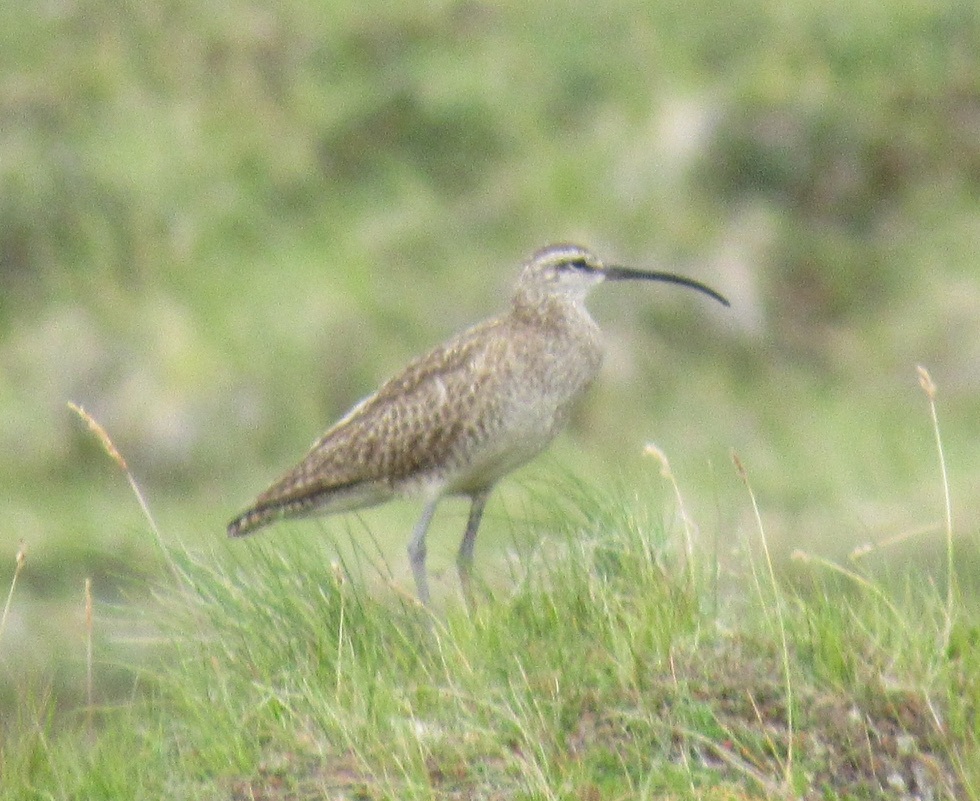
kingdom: Animalia
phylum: Chordata
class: Aves
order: Charadriiformes
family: Scolopacidae
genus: Numenius
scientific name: Numenius phaeopus
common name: Whimbrel
